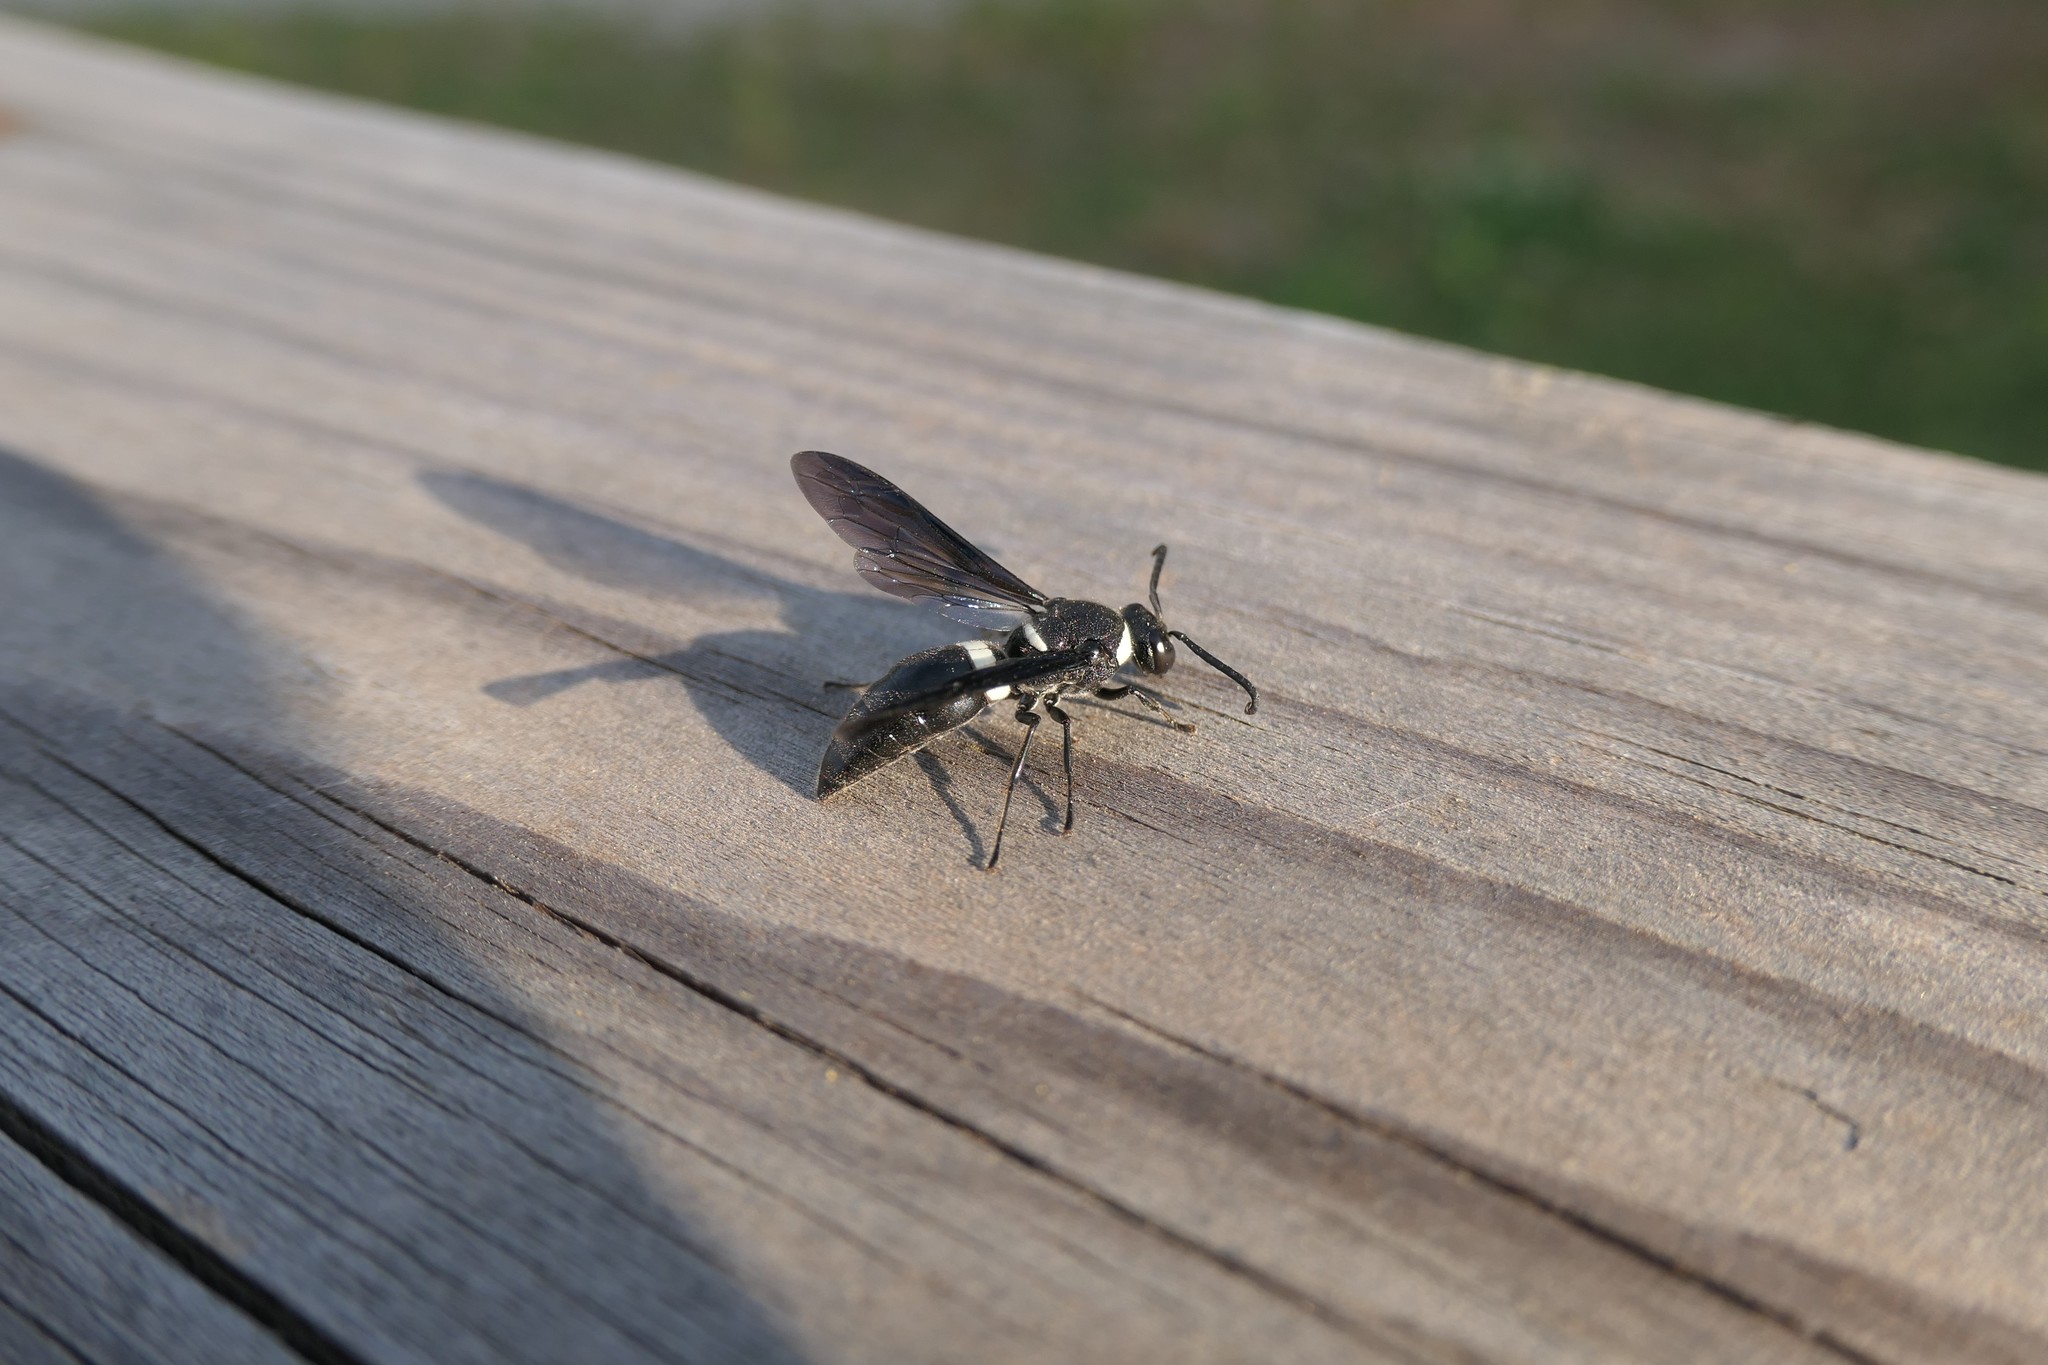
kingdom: Animalia
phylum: Arthropoda
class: Insecta
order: Hymenoptera
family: Eumenidae
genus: Monobia
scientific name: Monobia quadridens
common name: Four-toothed mason wasp
